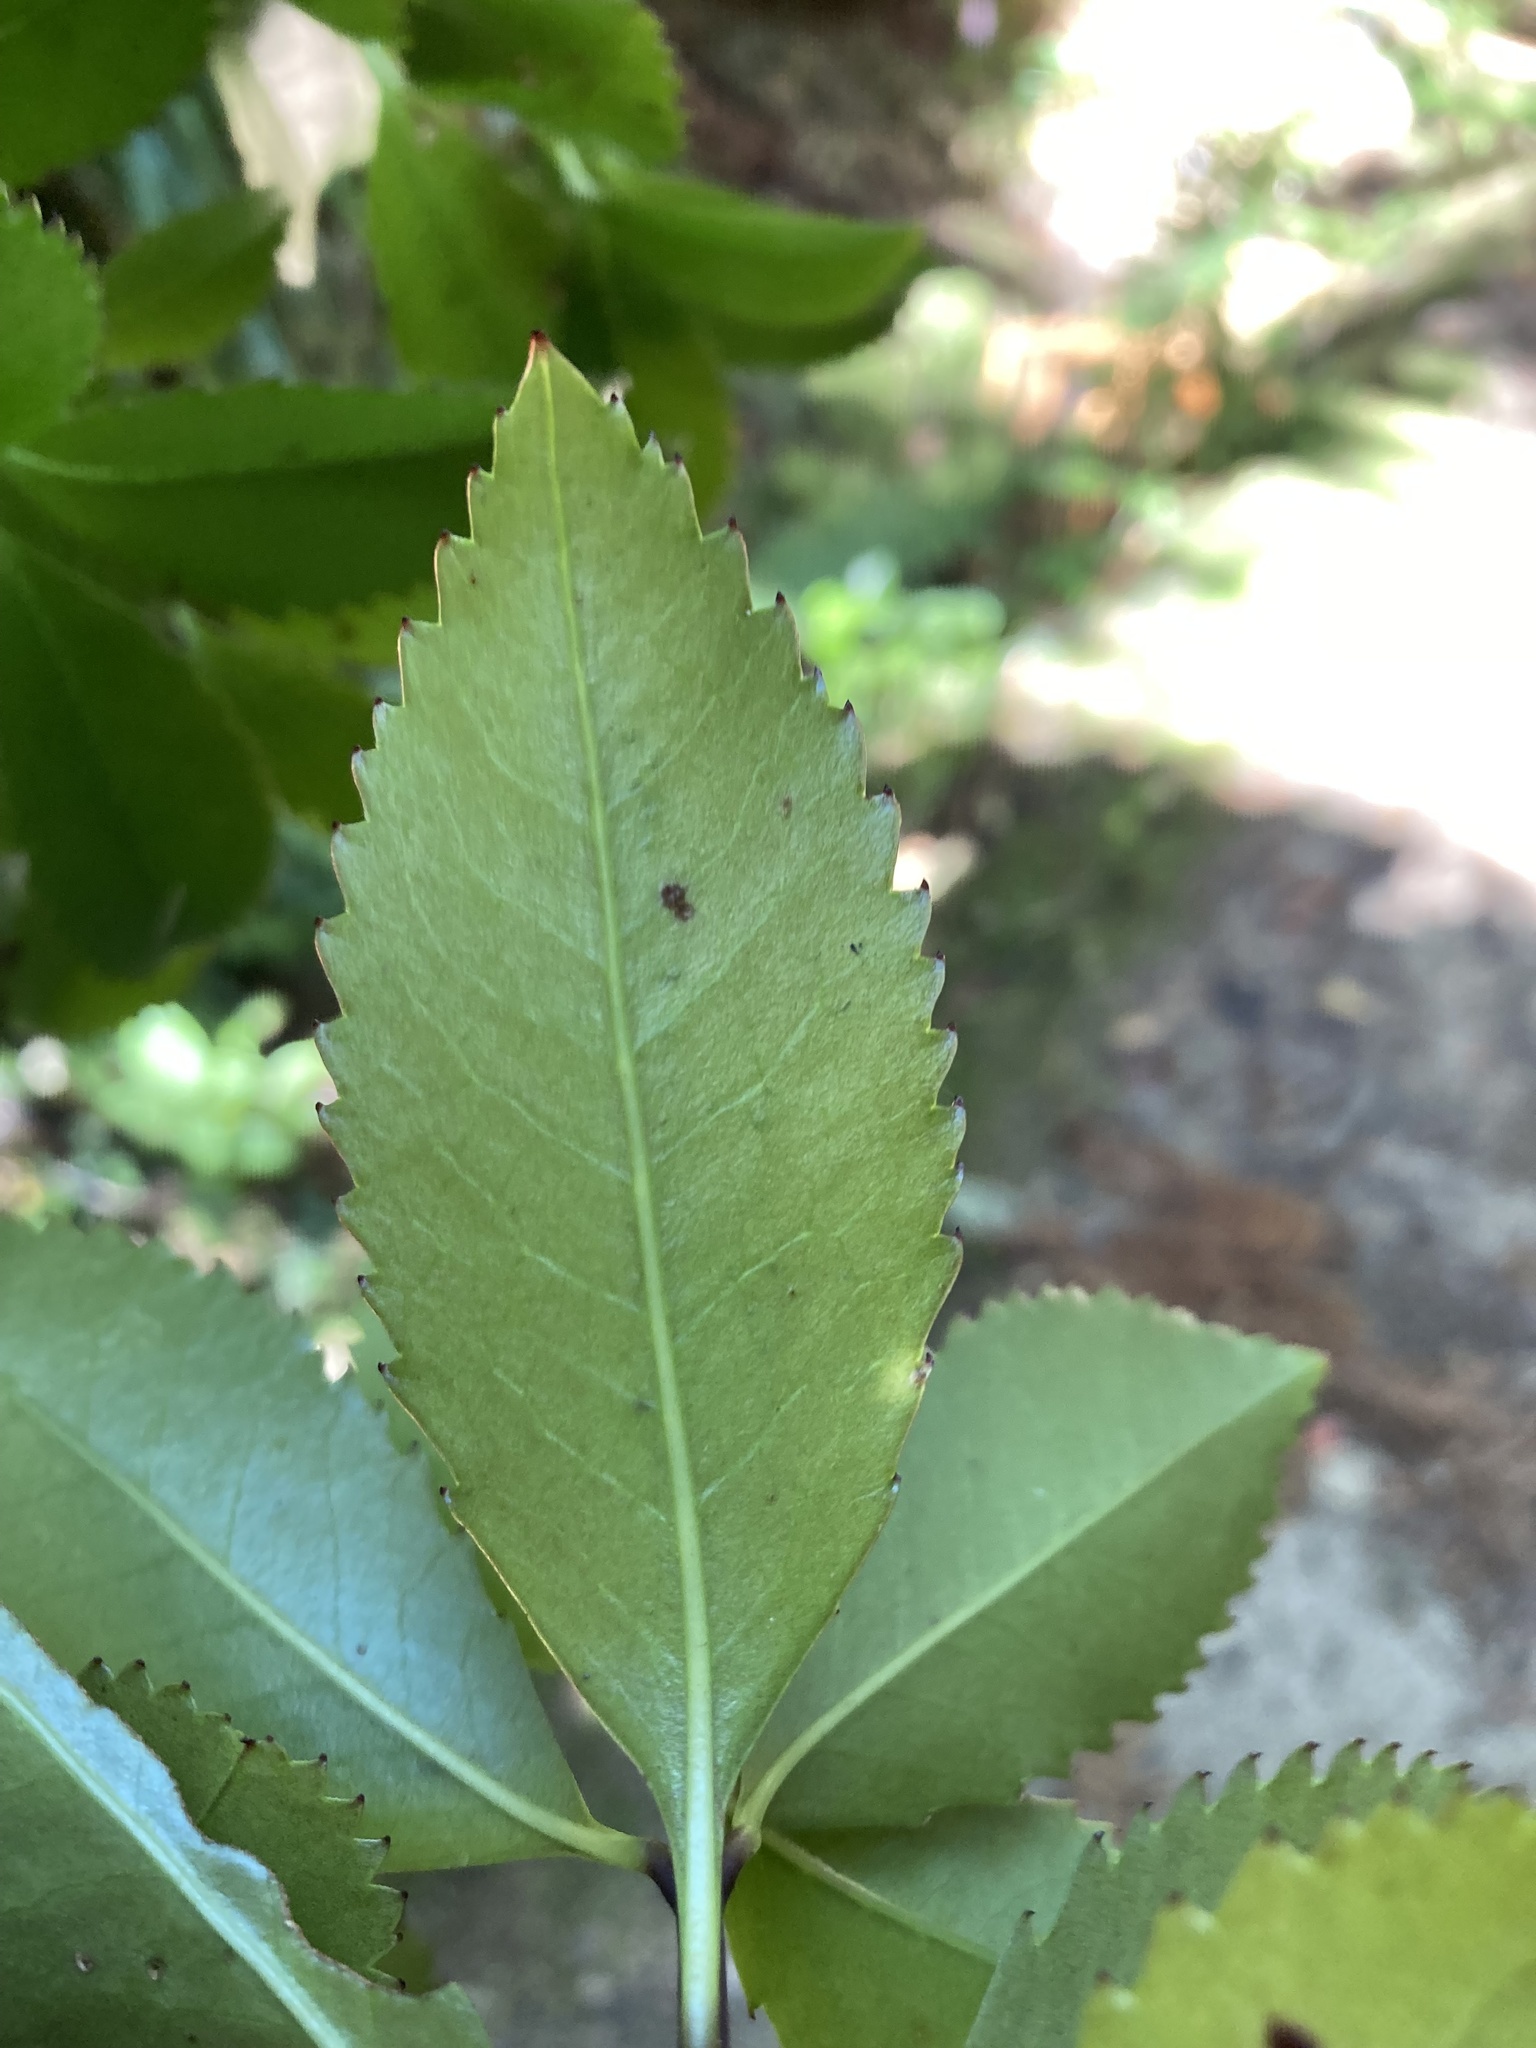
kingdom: Plantae
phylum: Tracheophyta
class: Magnoliopsida
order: Chloranthales
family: Chloranthaceae
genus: Ascarina
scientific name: Ascarina lucida
